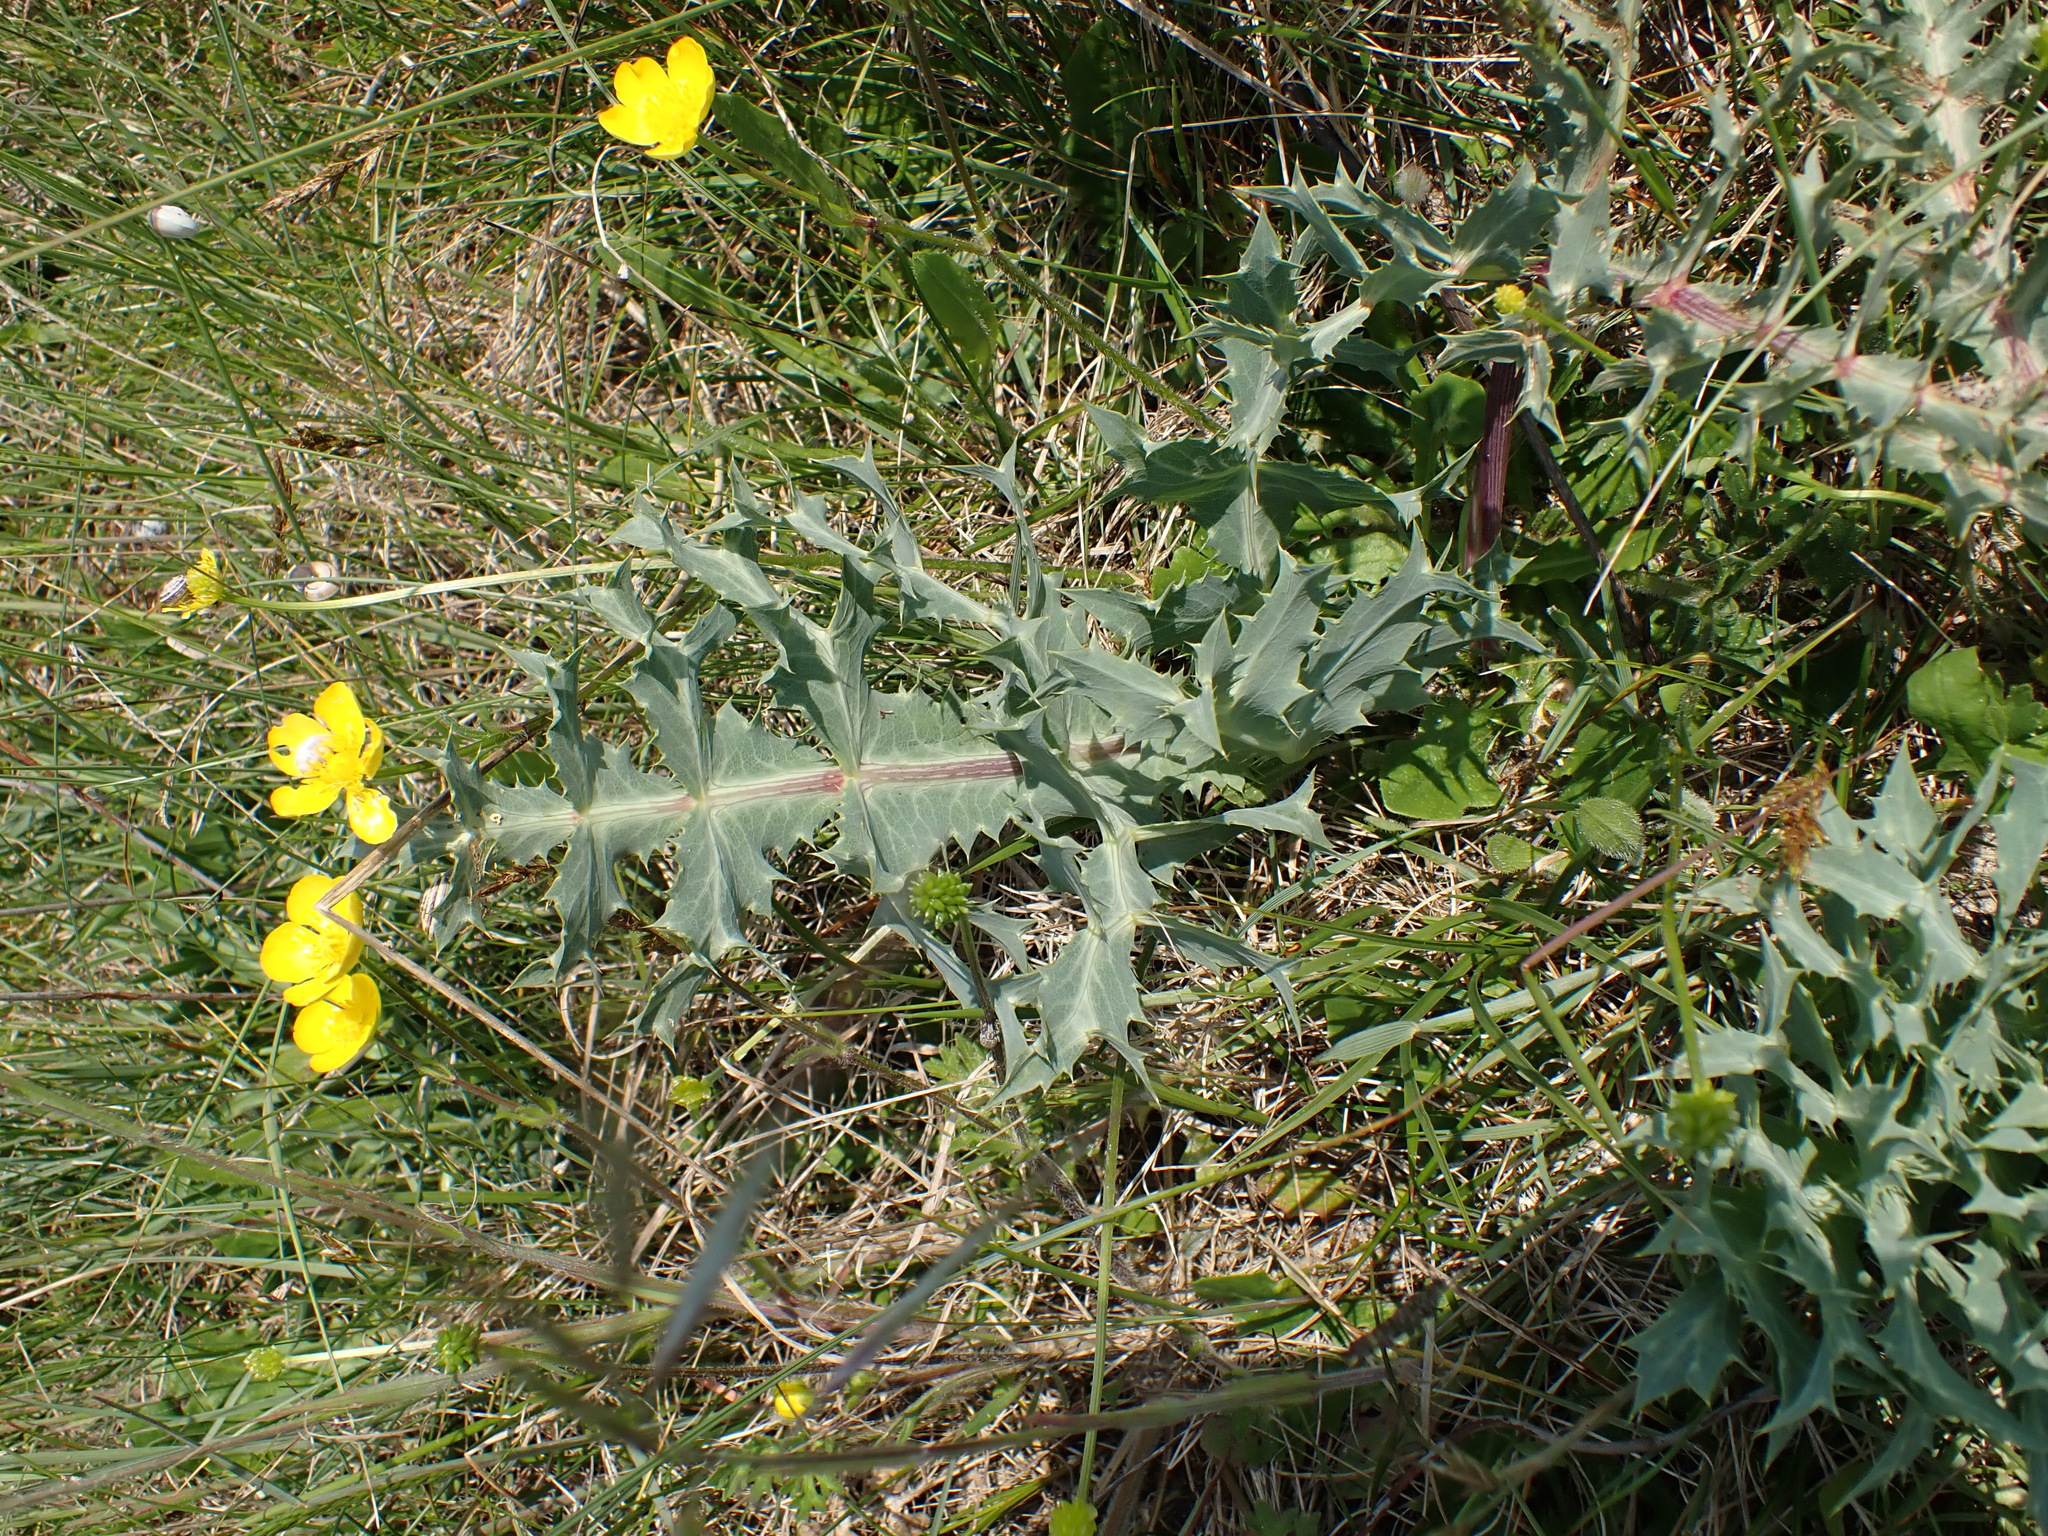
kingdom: Plantae
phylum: Tracheophyta
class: Magnoliopsida
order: Apiales
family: Apiaceae
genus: Eryngium
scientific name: Eryngium campestre
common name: Field eryngo
